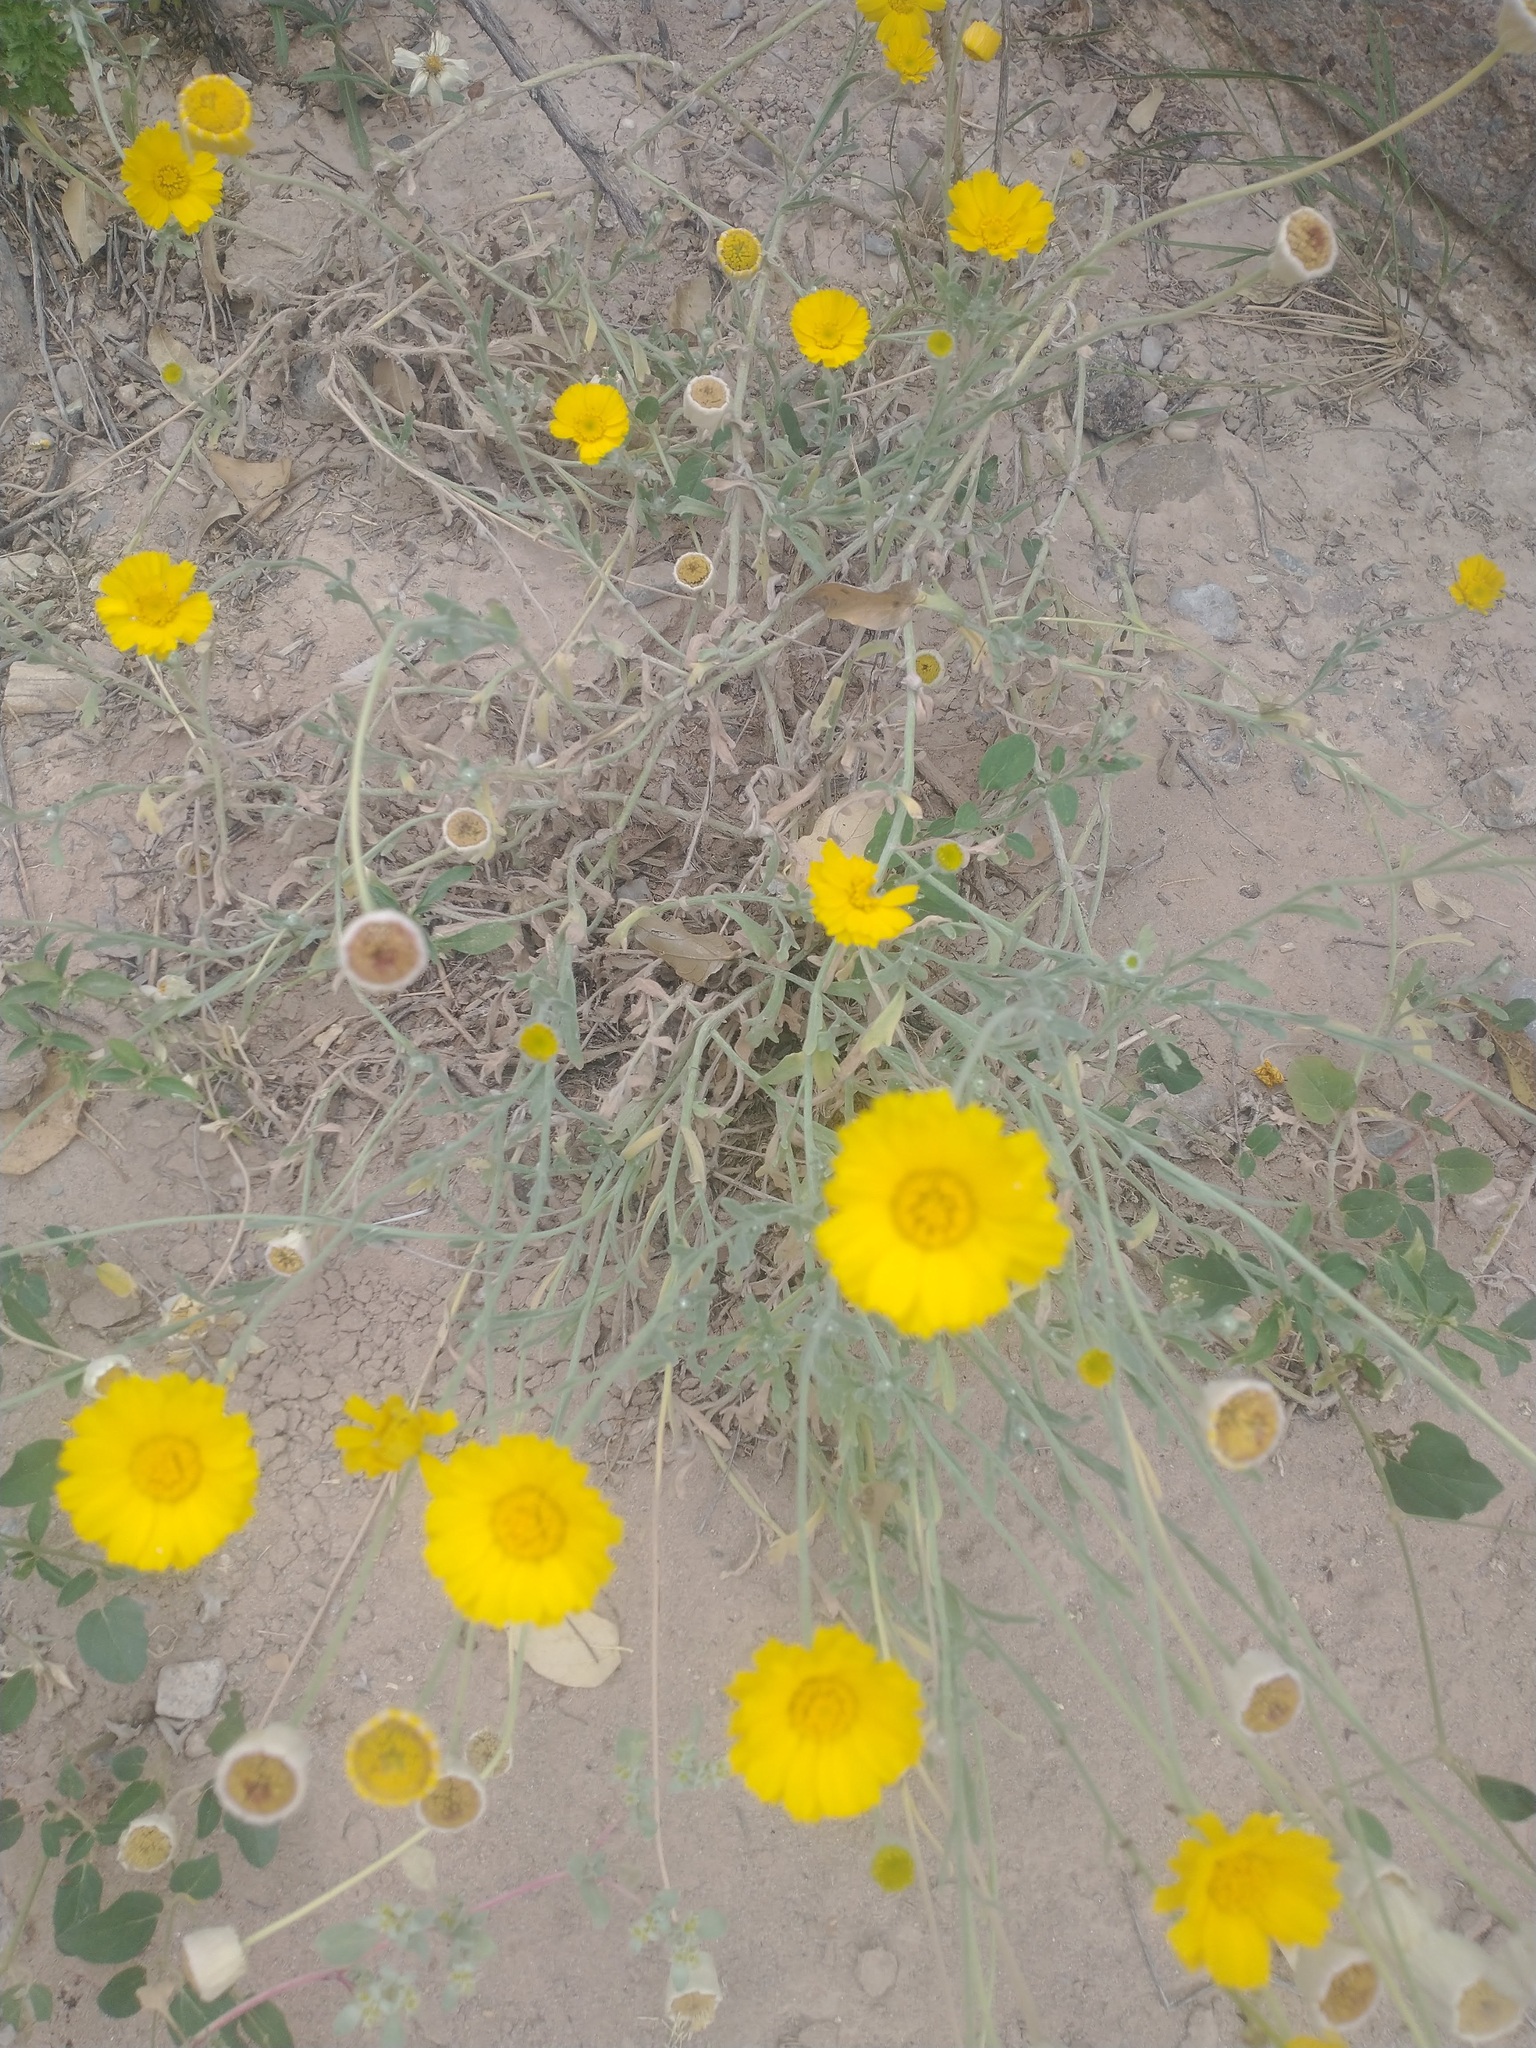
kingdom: Plantae
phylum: Tracheophyta
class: Magnoliopsida
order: Asterales
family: Asteraceae
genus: Baileya
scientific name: Baileya multiradiata
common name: Desert-marigold
